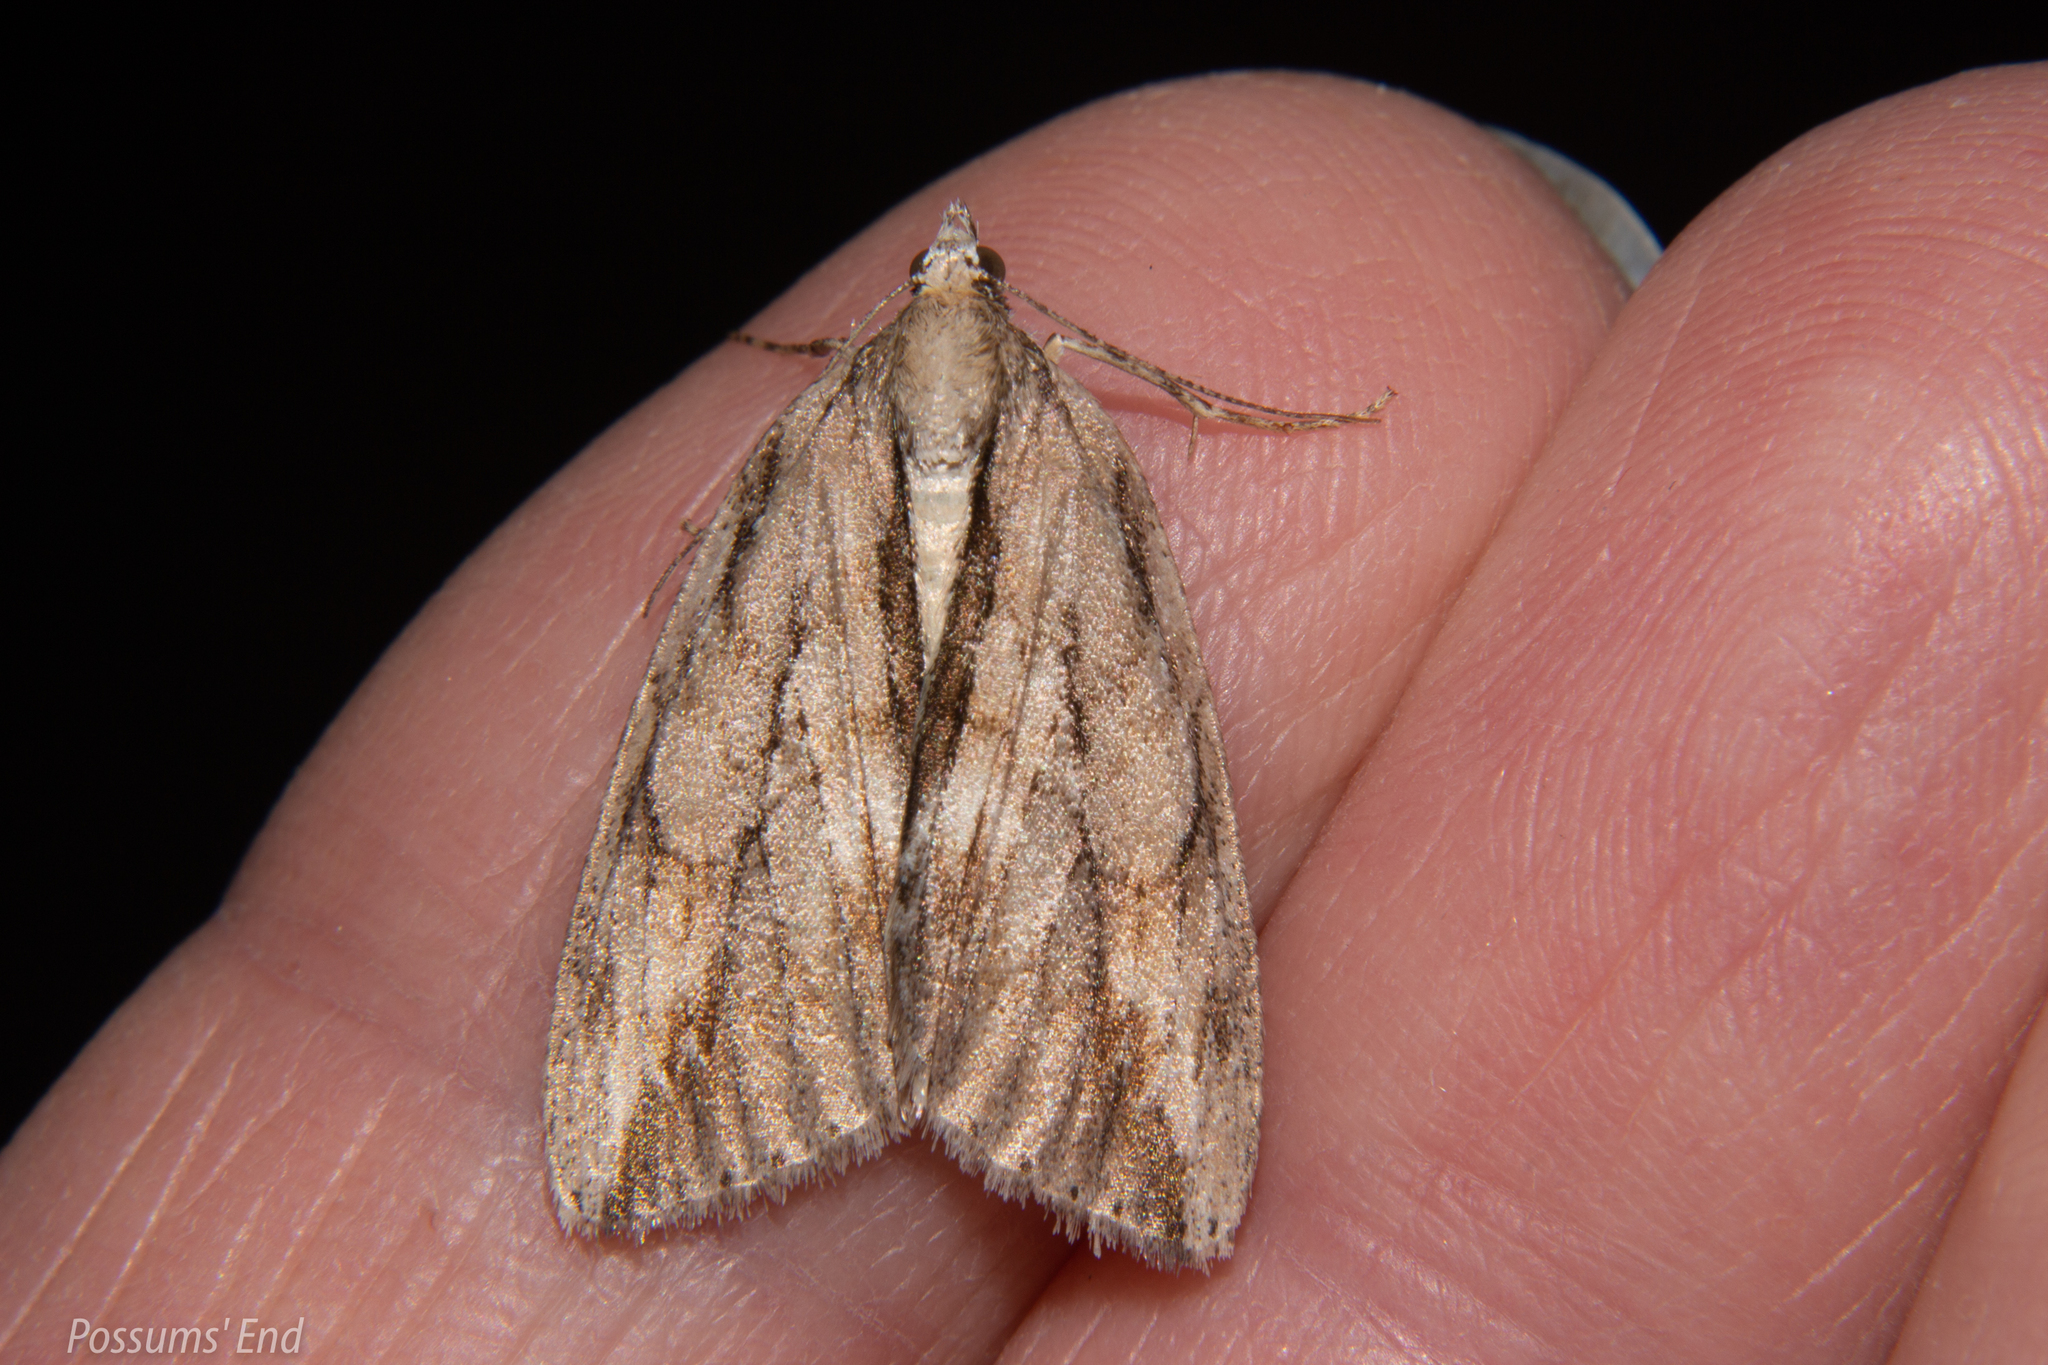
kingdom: Animalia
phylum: Arthropoda
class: Insecta
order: Lepidoptera
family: Geometridae
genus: Pseudocoremia
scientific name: Pseudocoremia lupinata
